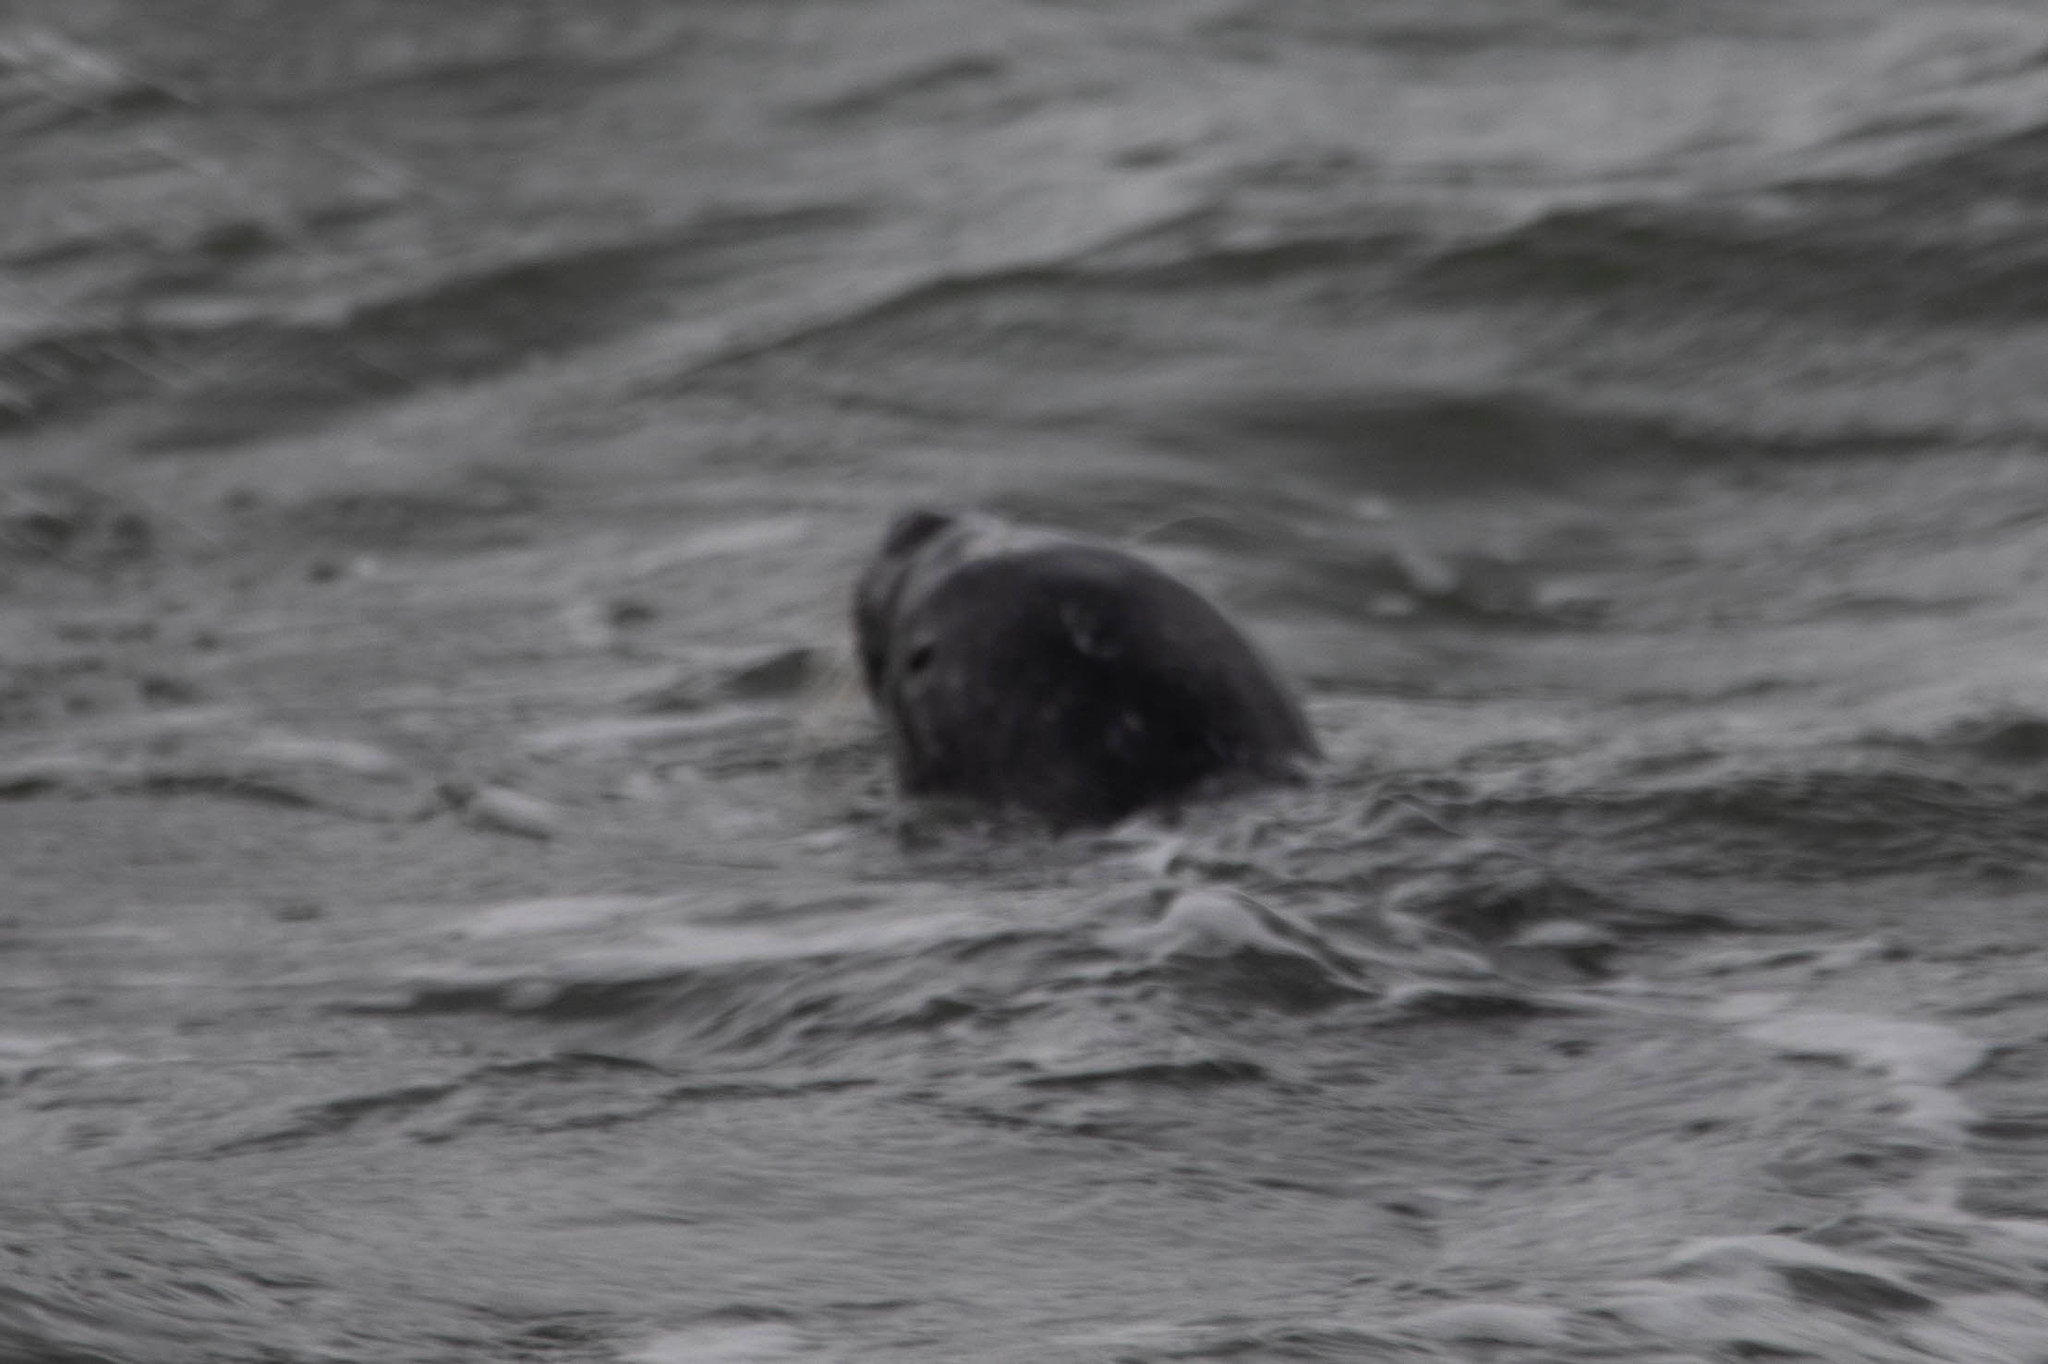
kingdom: Animalia
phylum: Chordata
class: Mammalia
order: Carnivora
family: Phocidae
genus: Phoca
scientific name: Phoca vitulina
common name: Harbor seal
